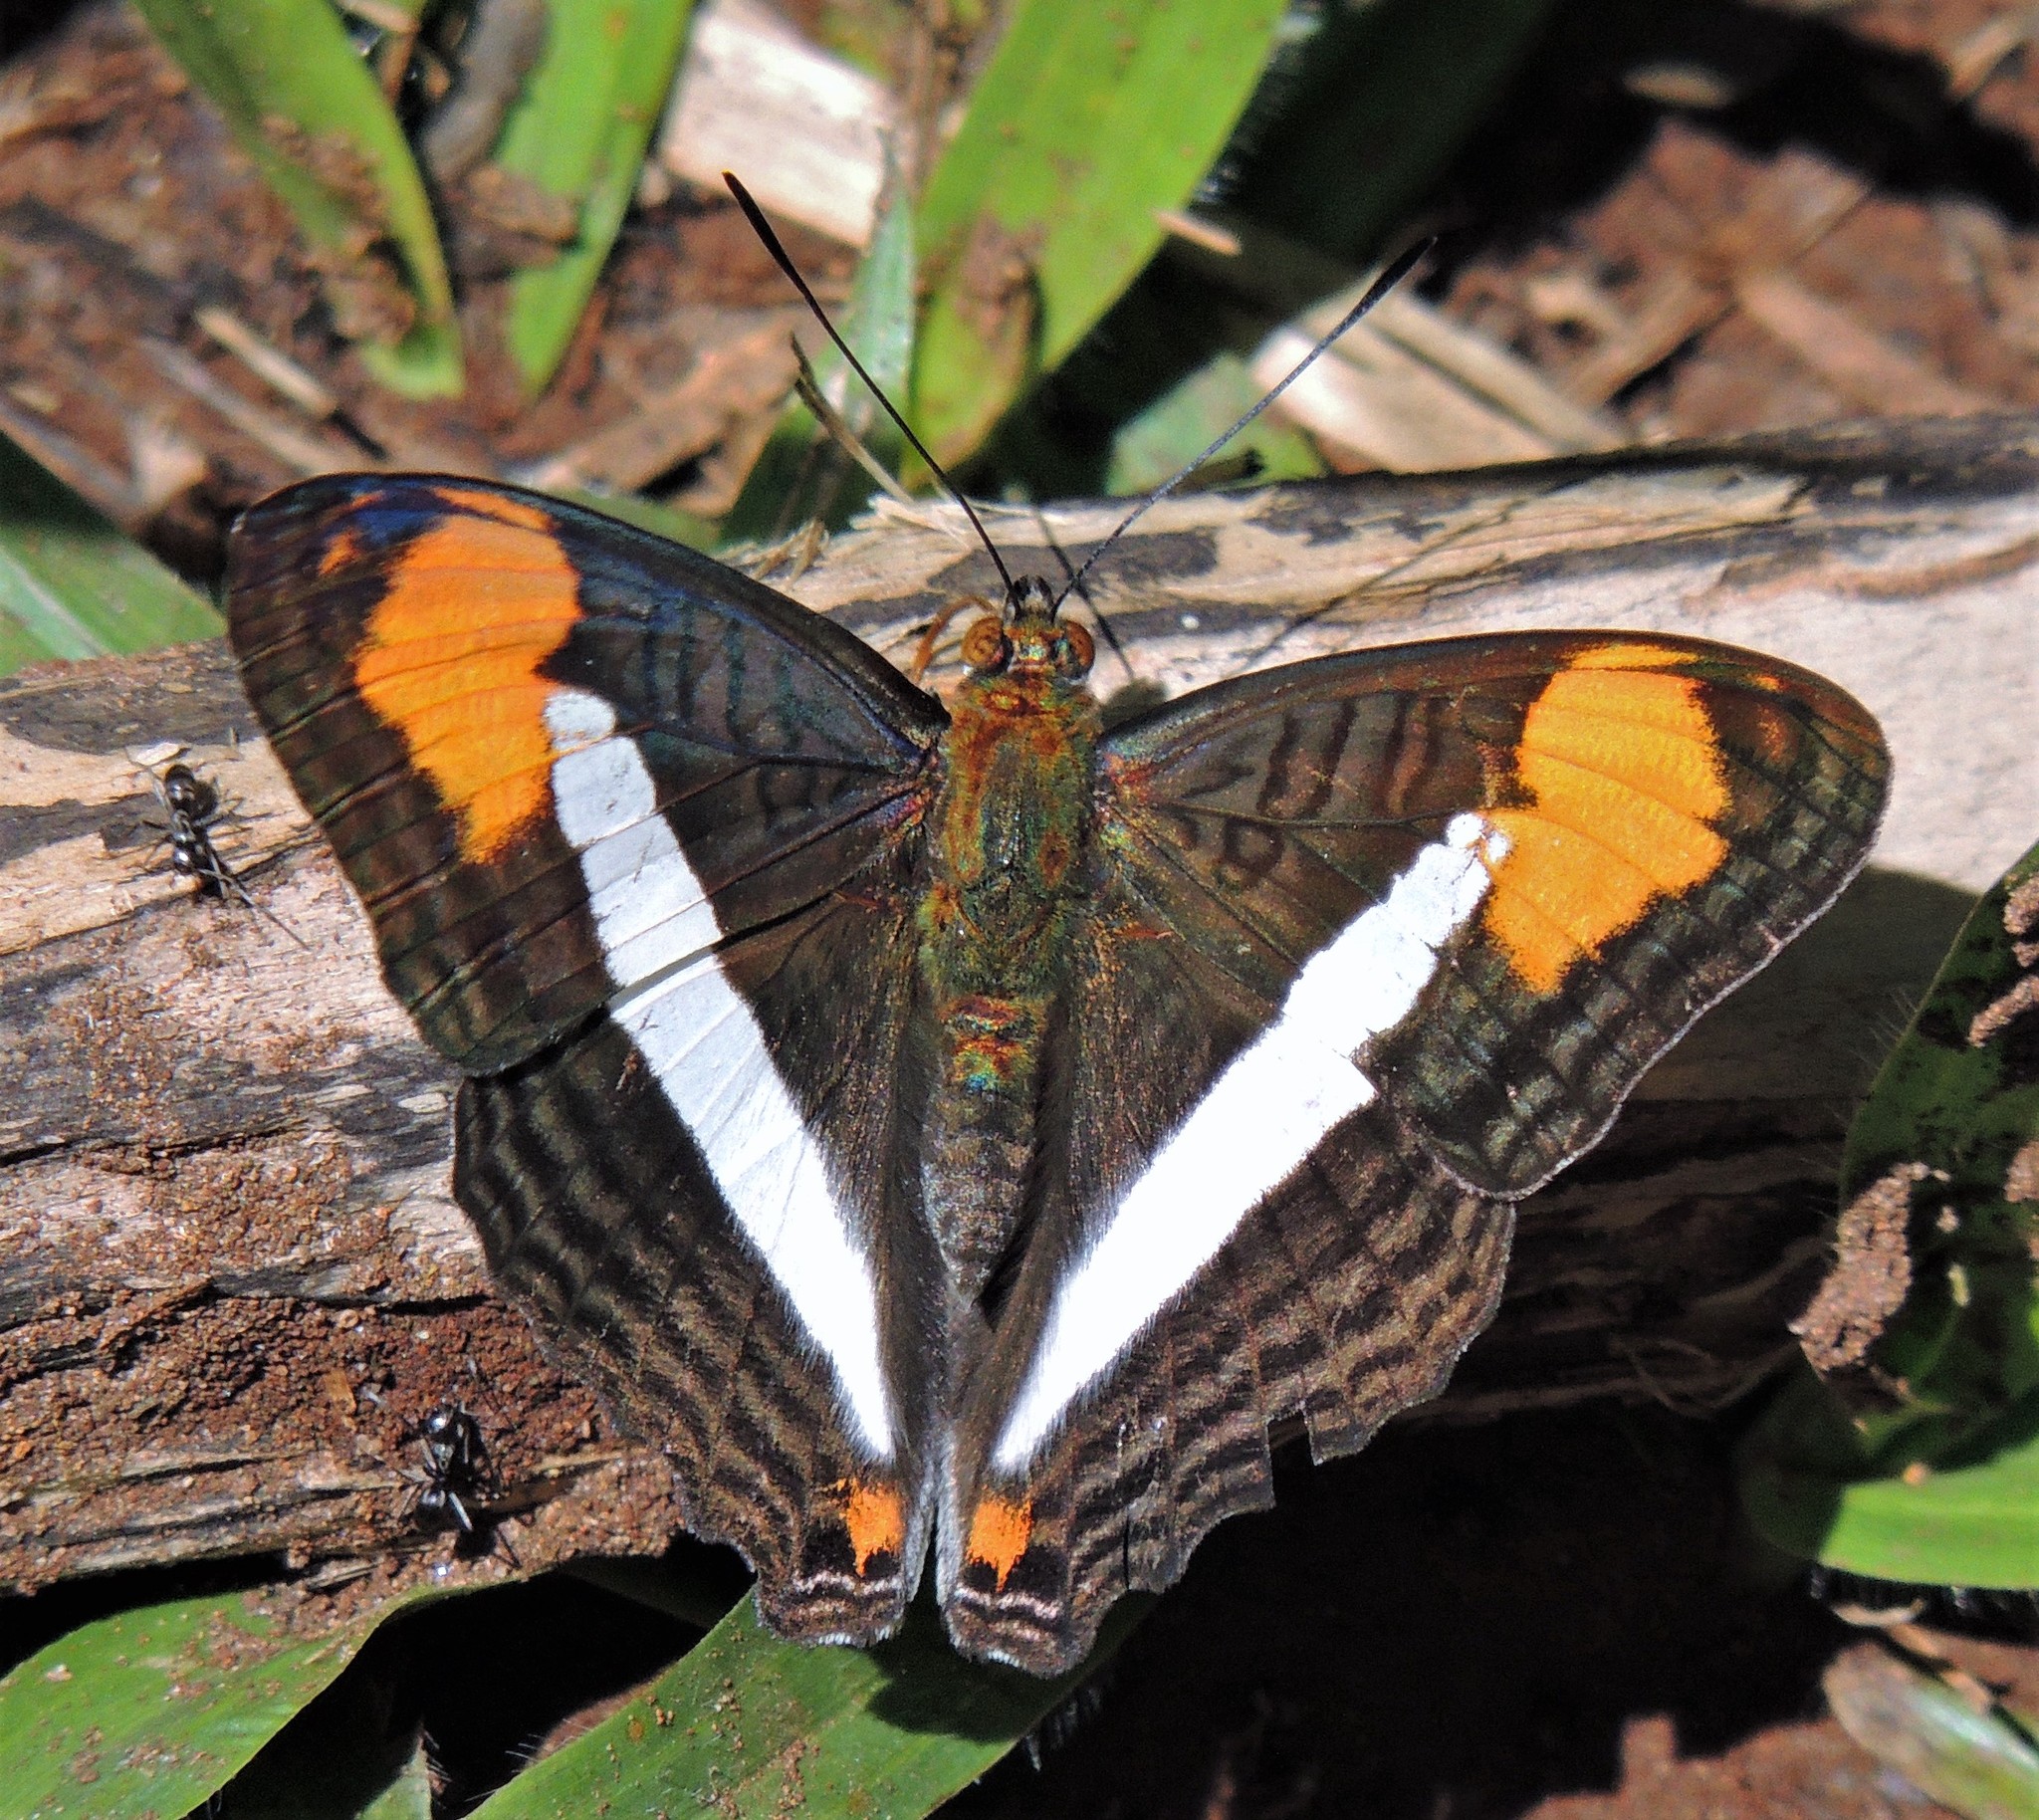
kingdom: Animalia
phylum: Arthropoda
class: Insecta
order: Lepidoptera
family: Nymphalidae
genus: Limenitis
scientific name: Limenitis abia
